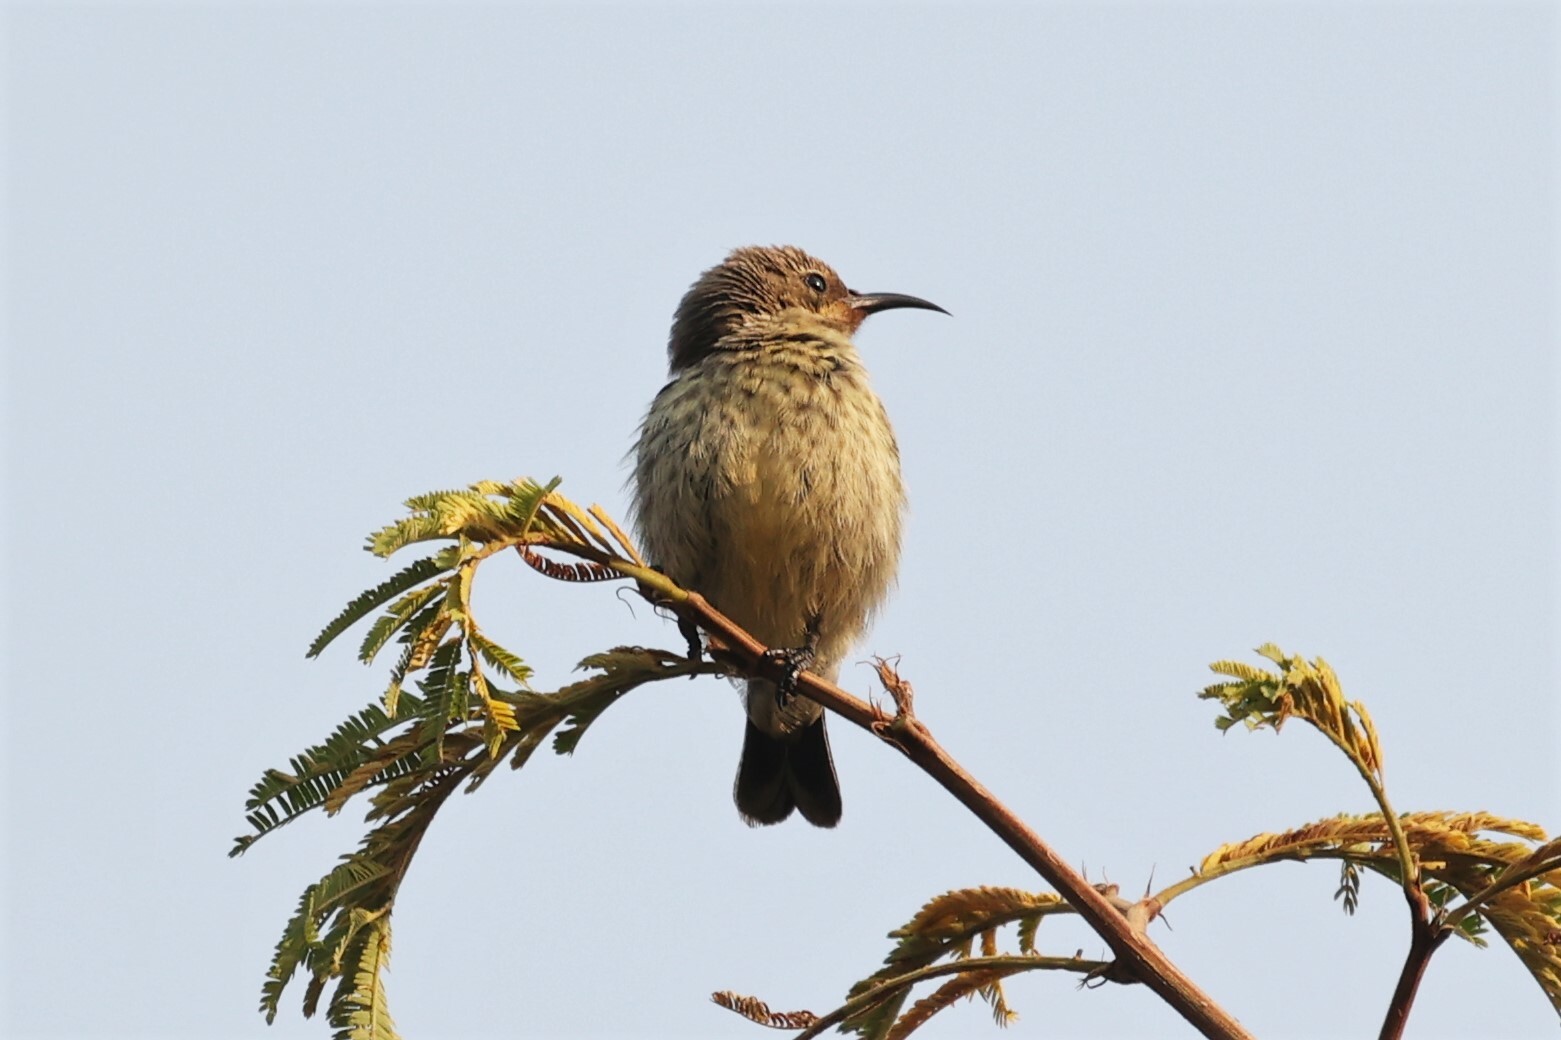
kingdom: Animalia
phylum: Chordata
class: Aves
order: Passeriformes
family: Nectariniidae
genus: Cinnyris
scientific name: Cinnyris bifasciatus
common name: Purple-banded sunbird
